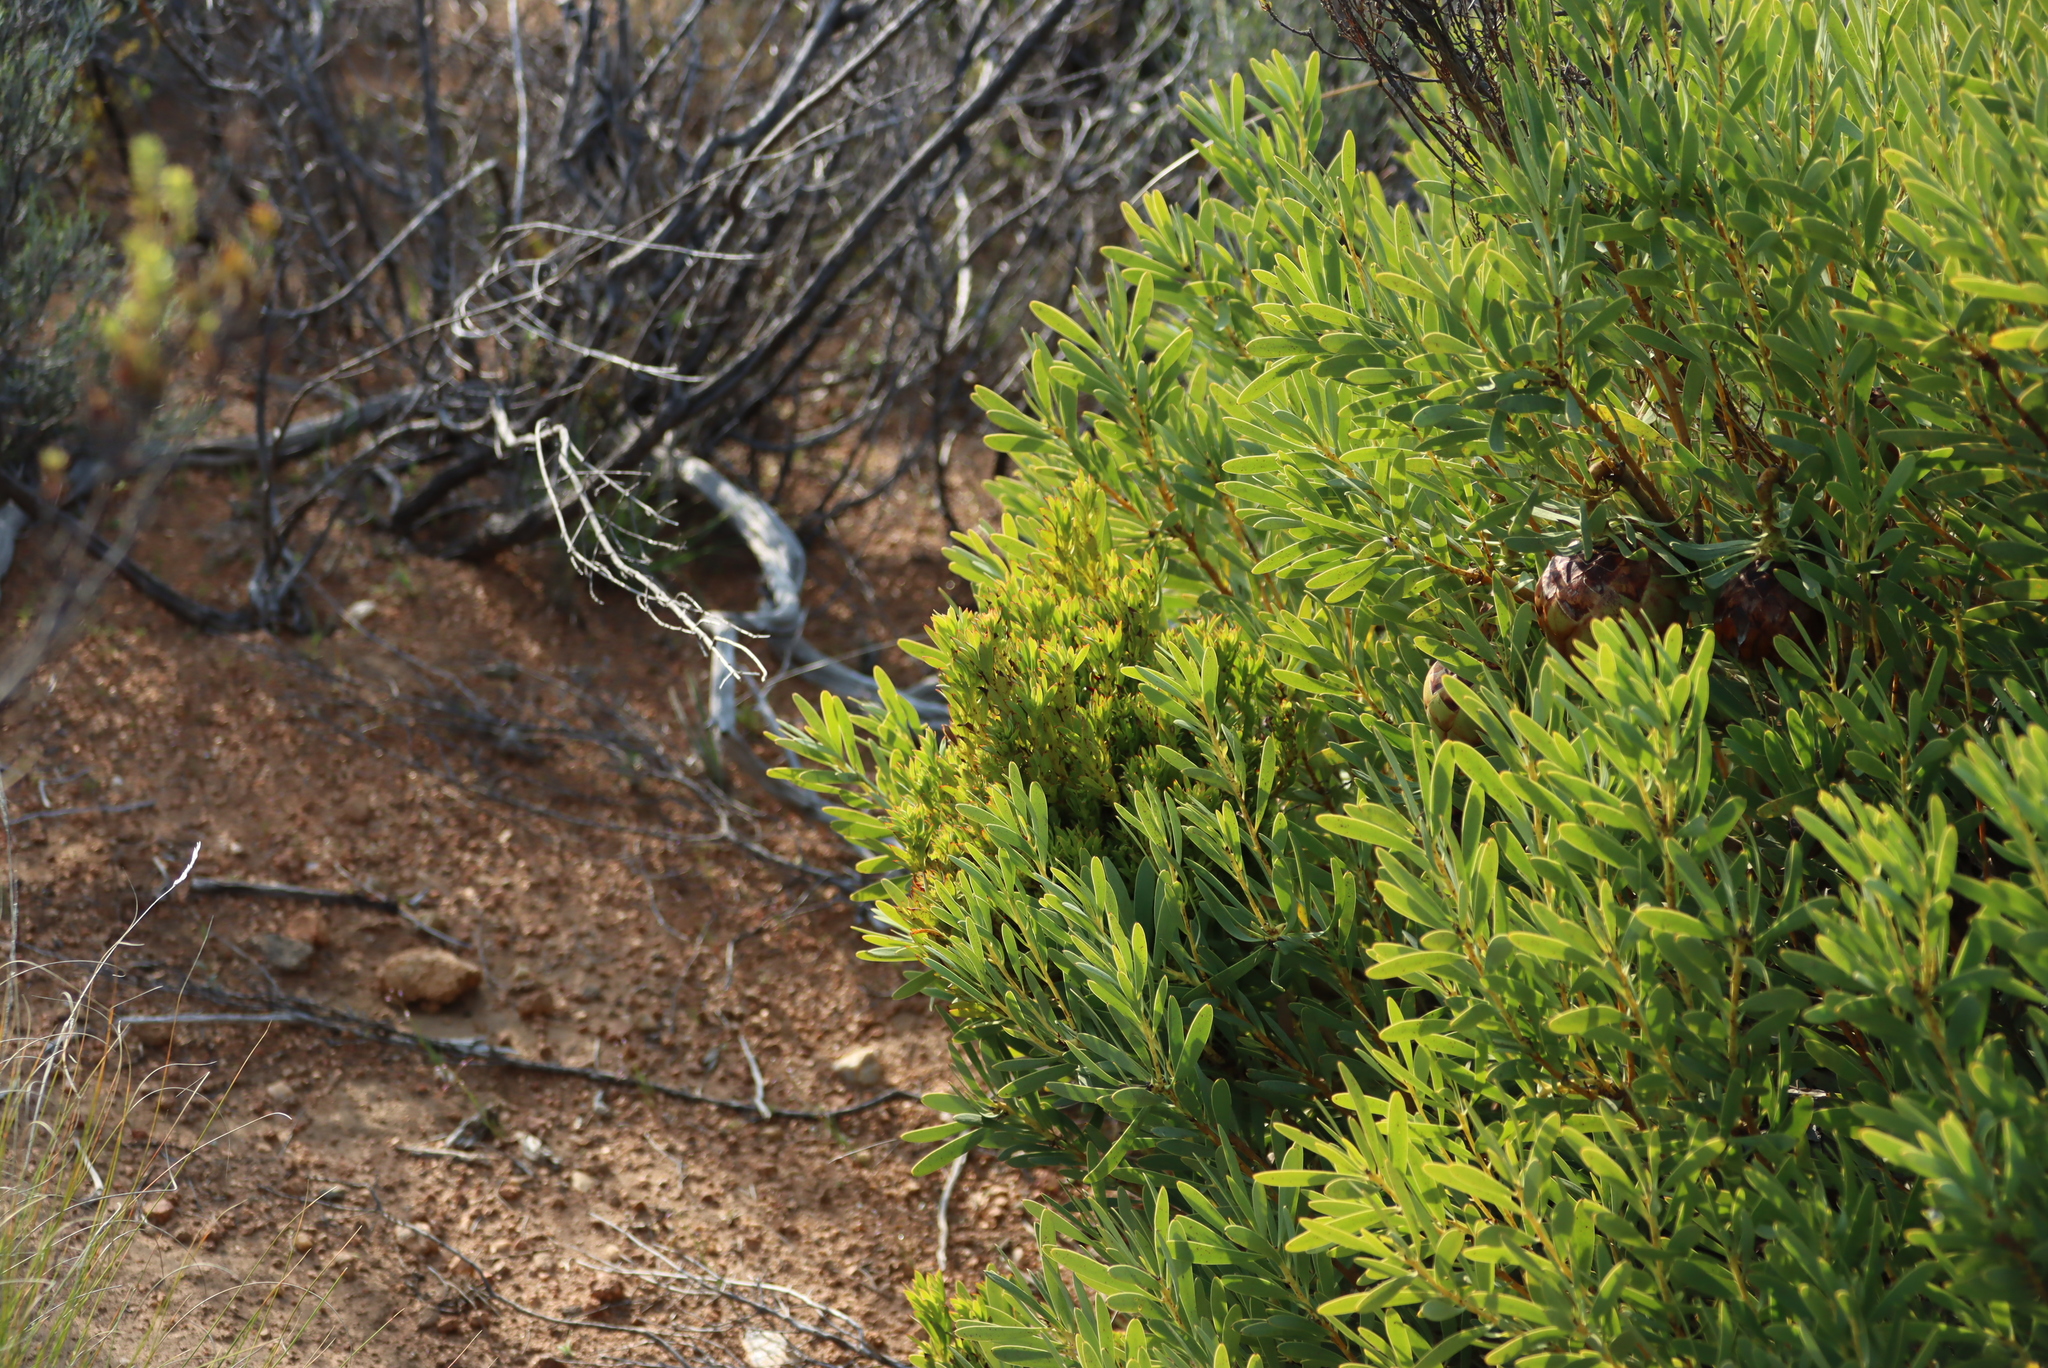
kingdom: Bacteria
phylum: Firmicutes
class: Bacilli
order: Acholeplasmatales
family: Acholeplasmataceae
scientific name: Acholeplasmataceae
